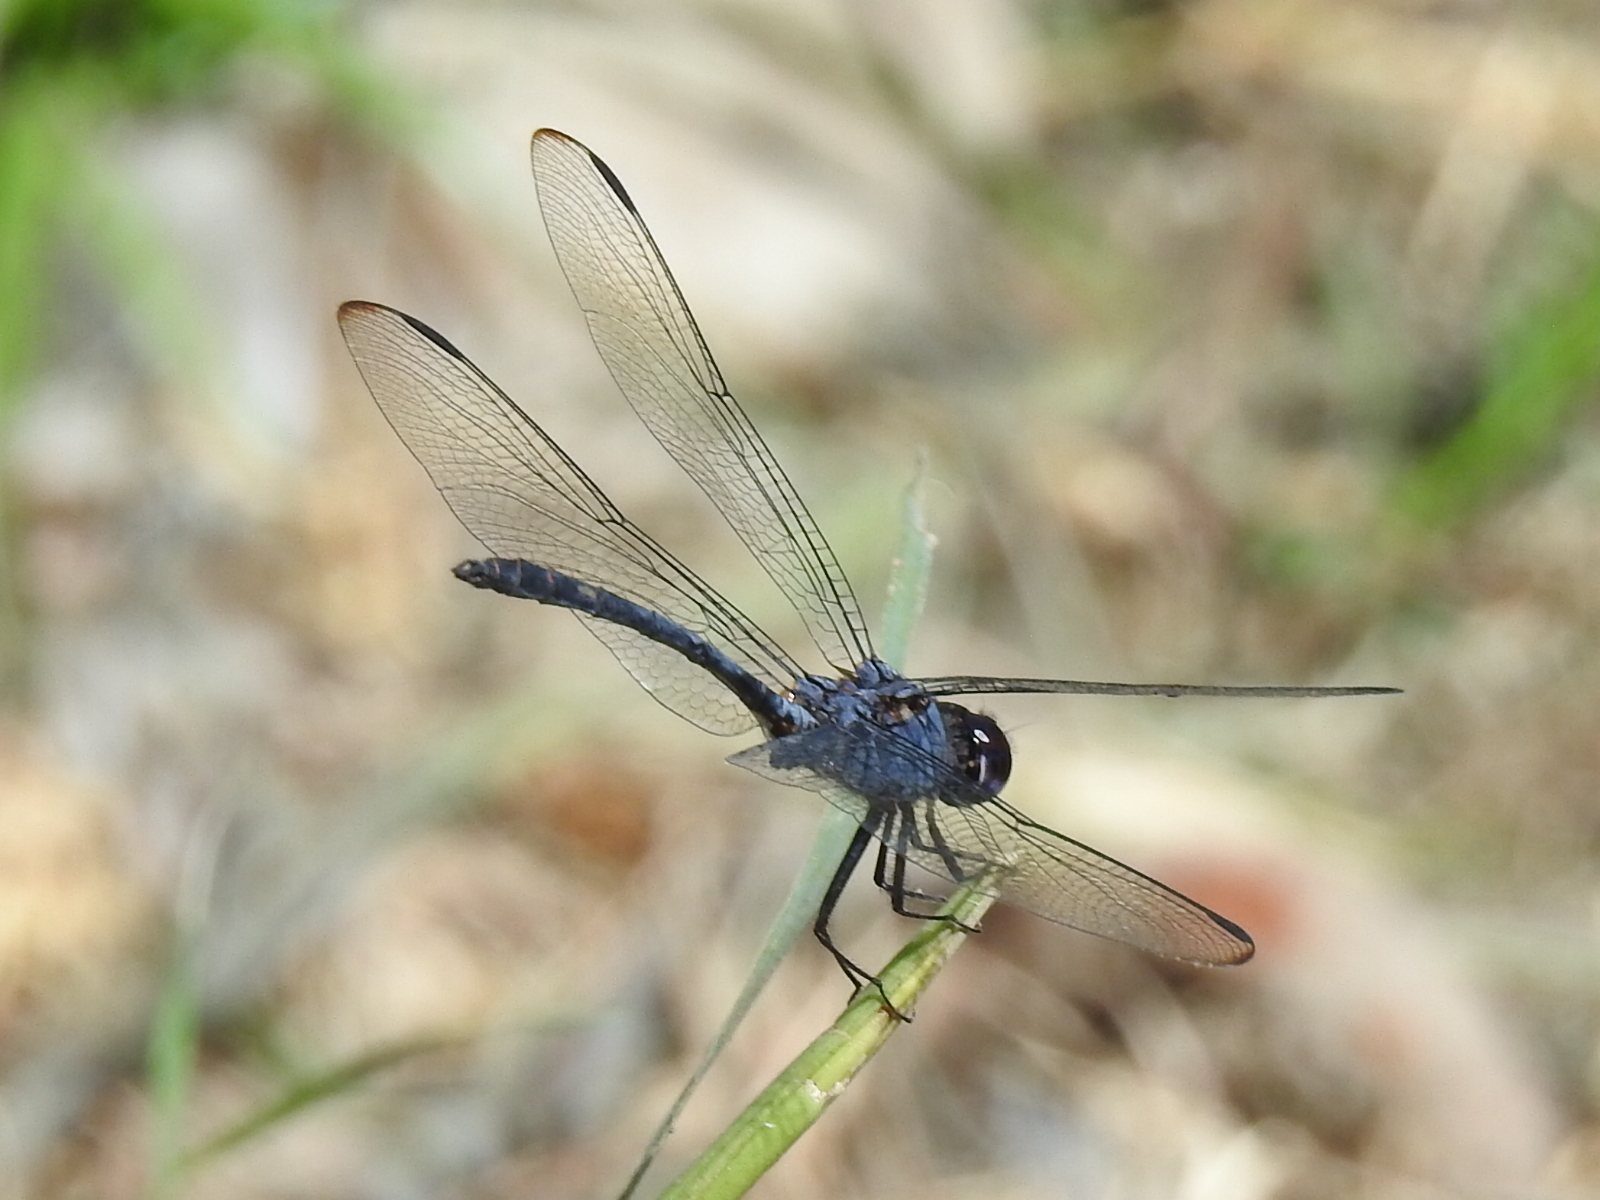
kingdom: Animalia
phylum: Arthropoda
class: Insecta
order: Odonata
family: Libellulidae
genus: Dythemis
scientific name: Dythemis nigrescens
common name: Black setwing
